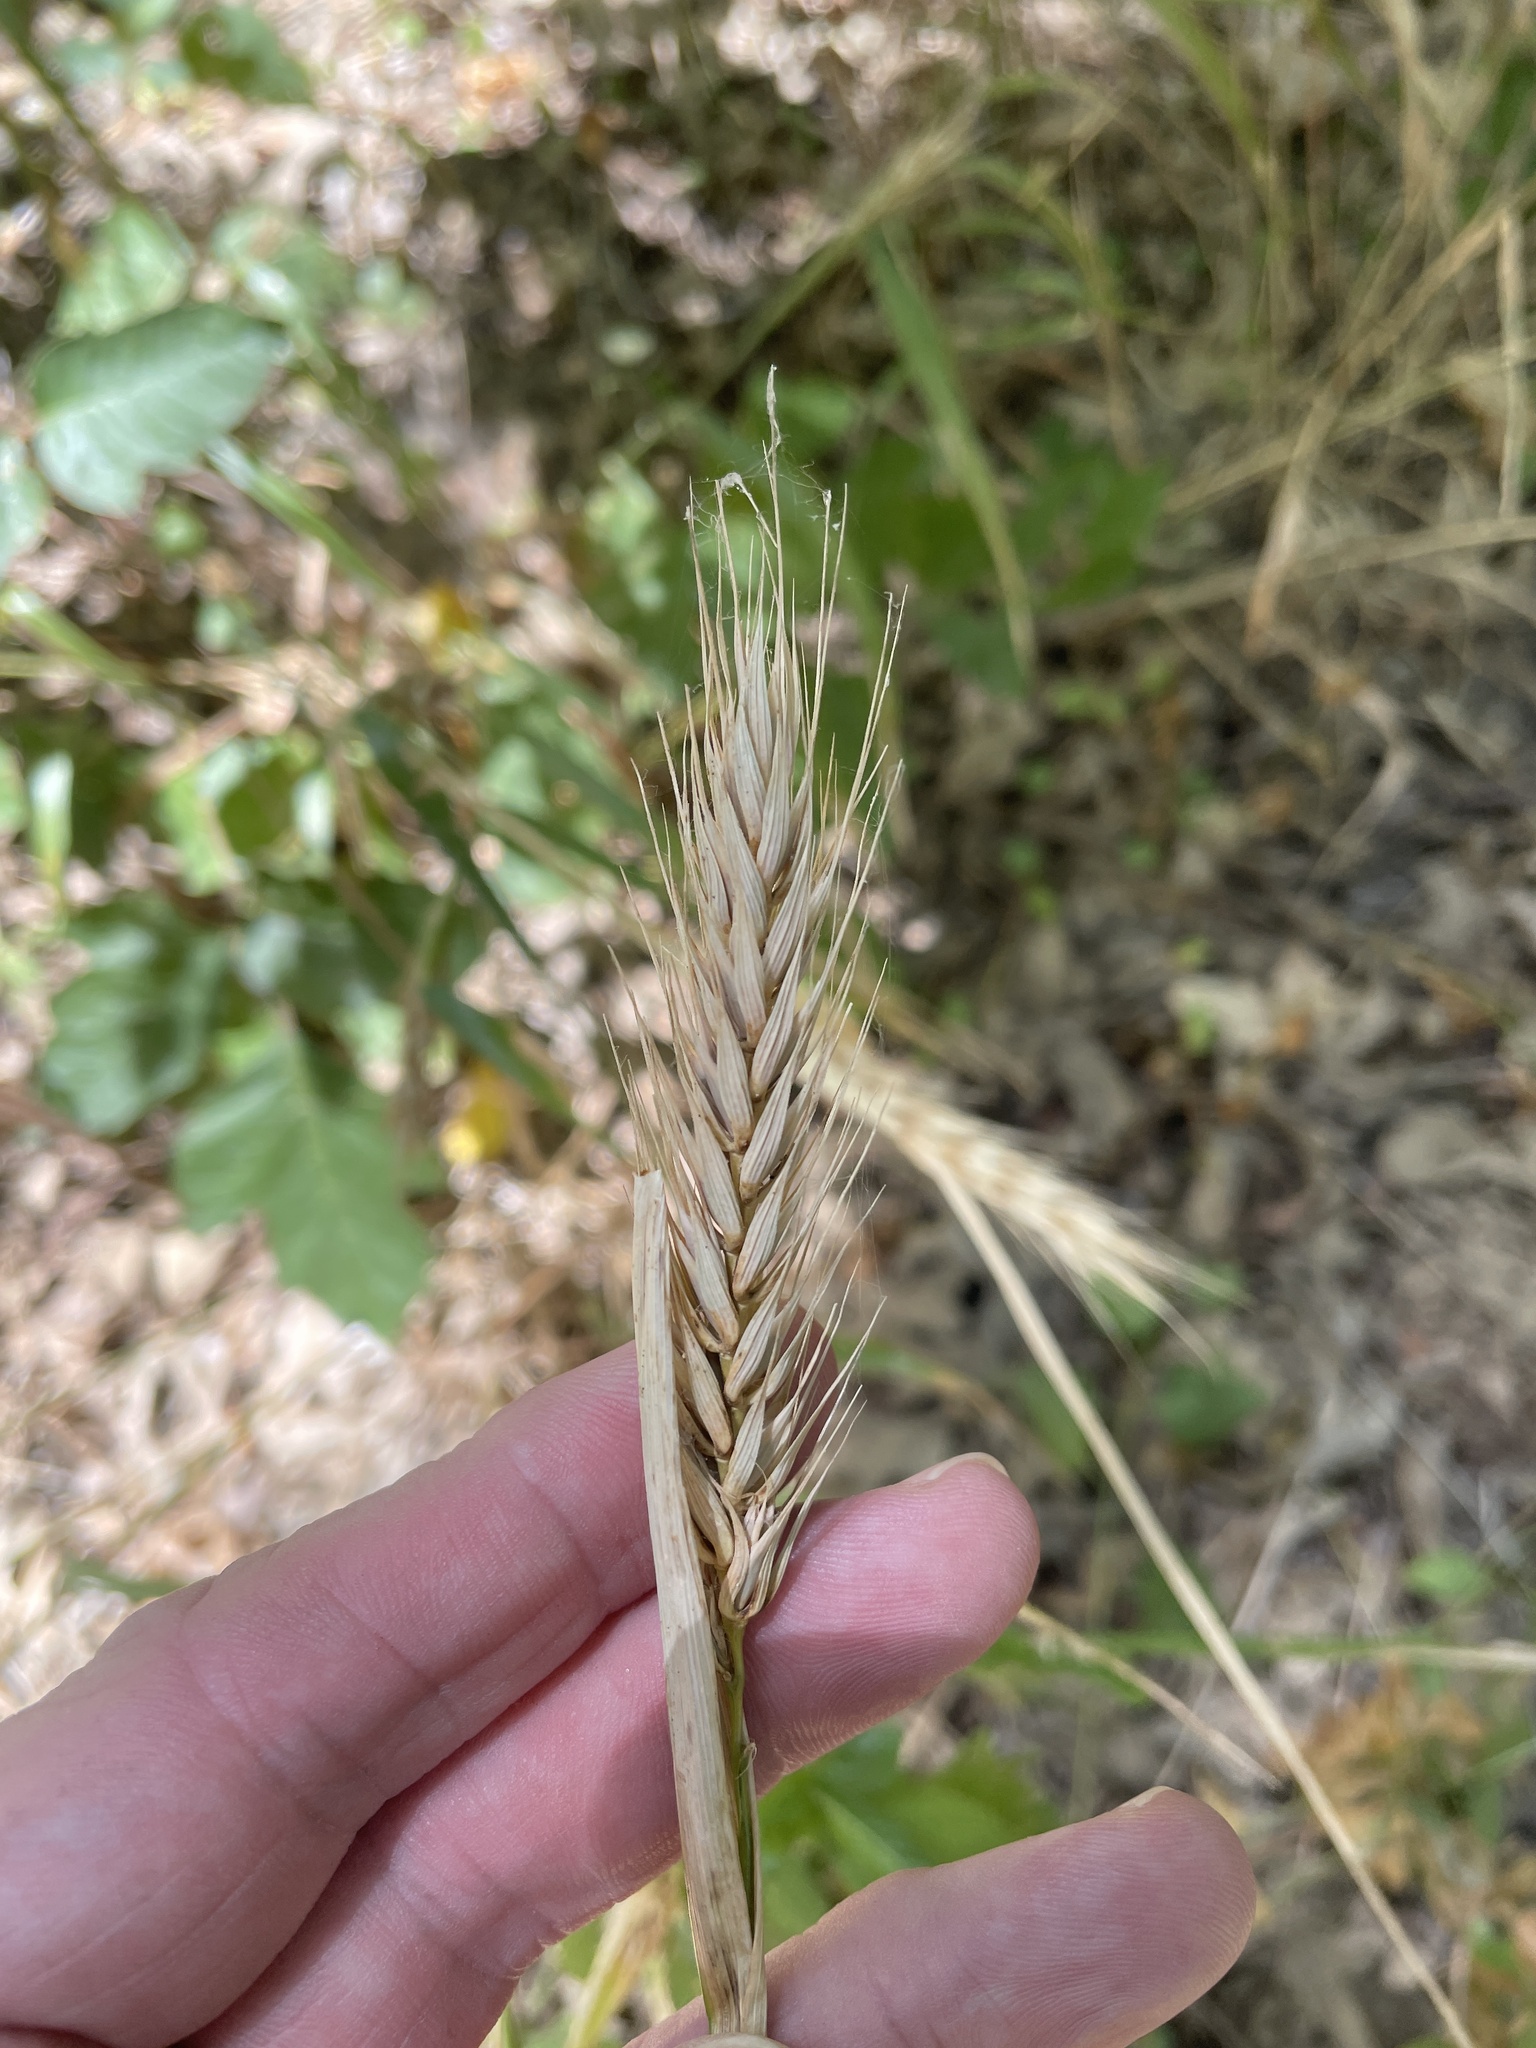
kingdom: Plantae
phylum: Tracheophyta
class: Liliopsida
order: Poales
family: Poaceae
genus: Elymus
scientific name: Elymus virginicus
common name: Common eastern wildrye
